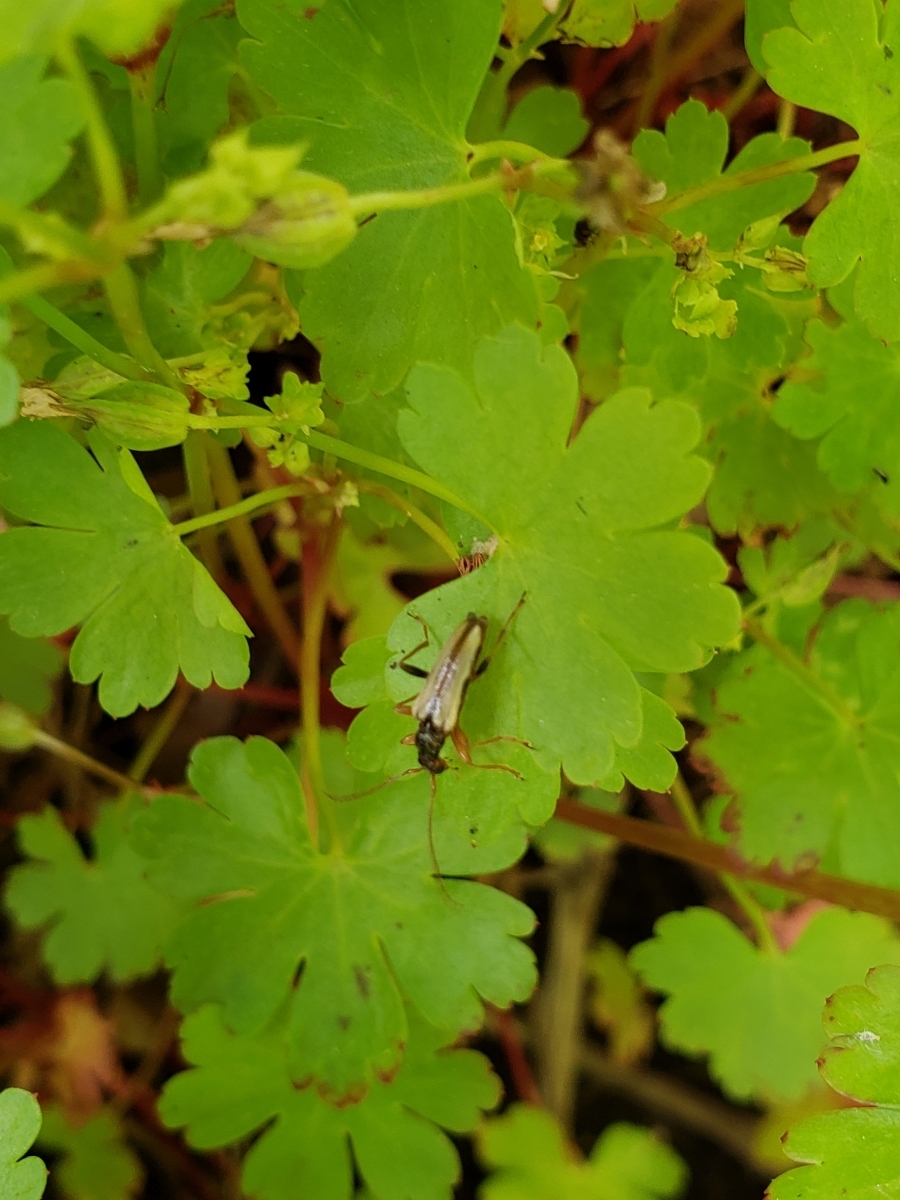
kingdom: Animalia
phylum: Arthropoda
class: Insecta
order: Coleoptera
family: Cerambycidae
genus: Pidonia
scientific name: Pidonia scripta
